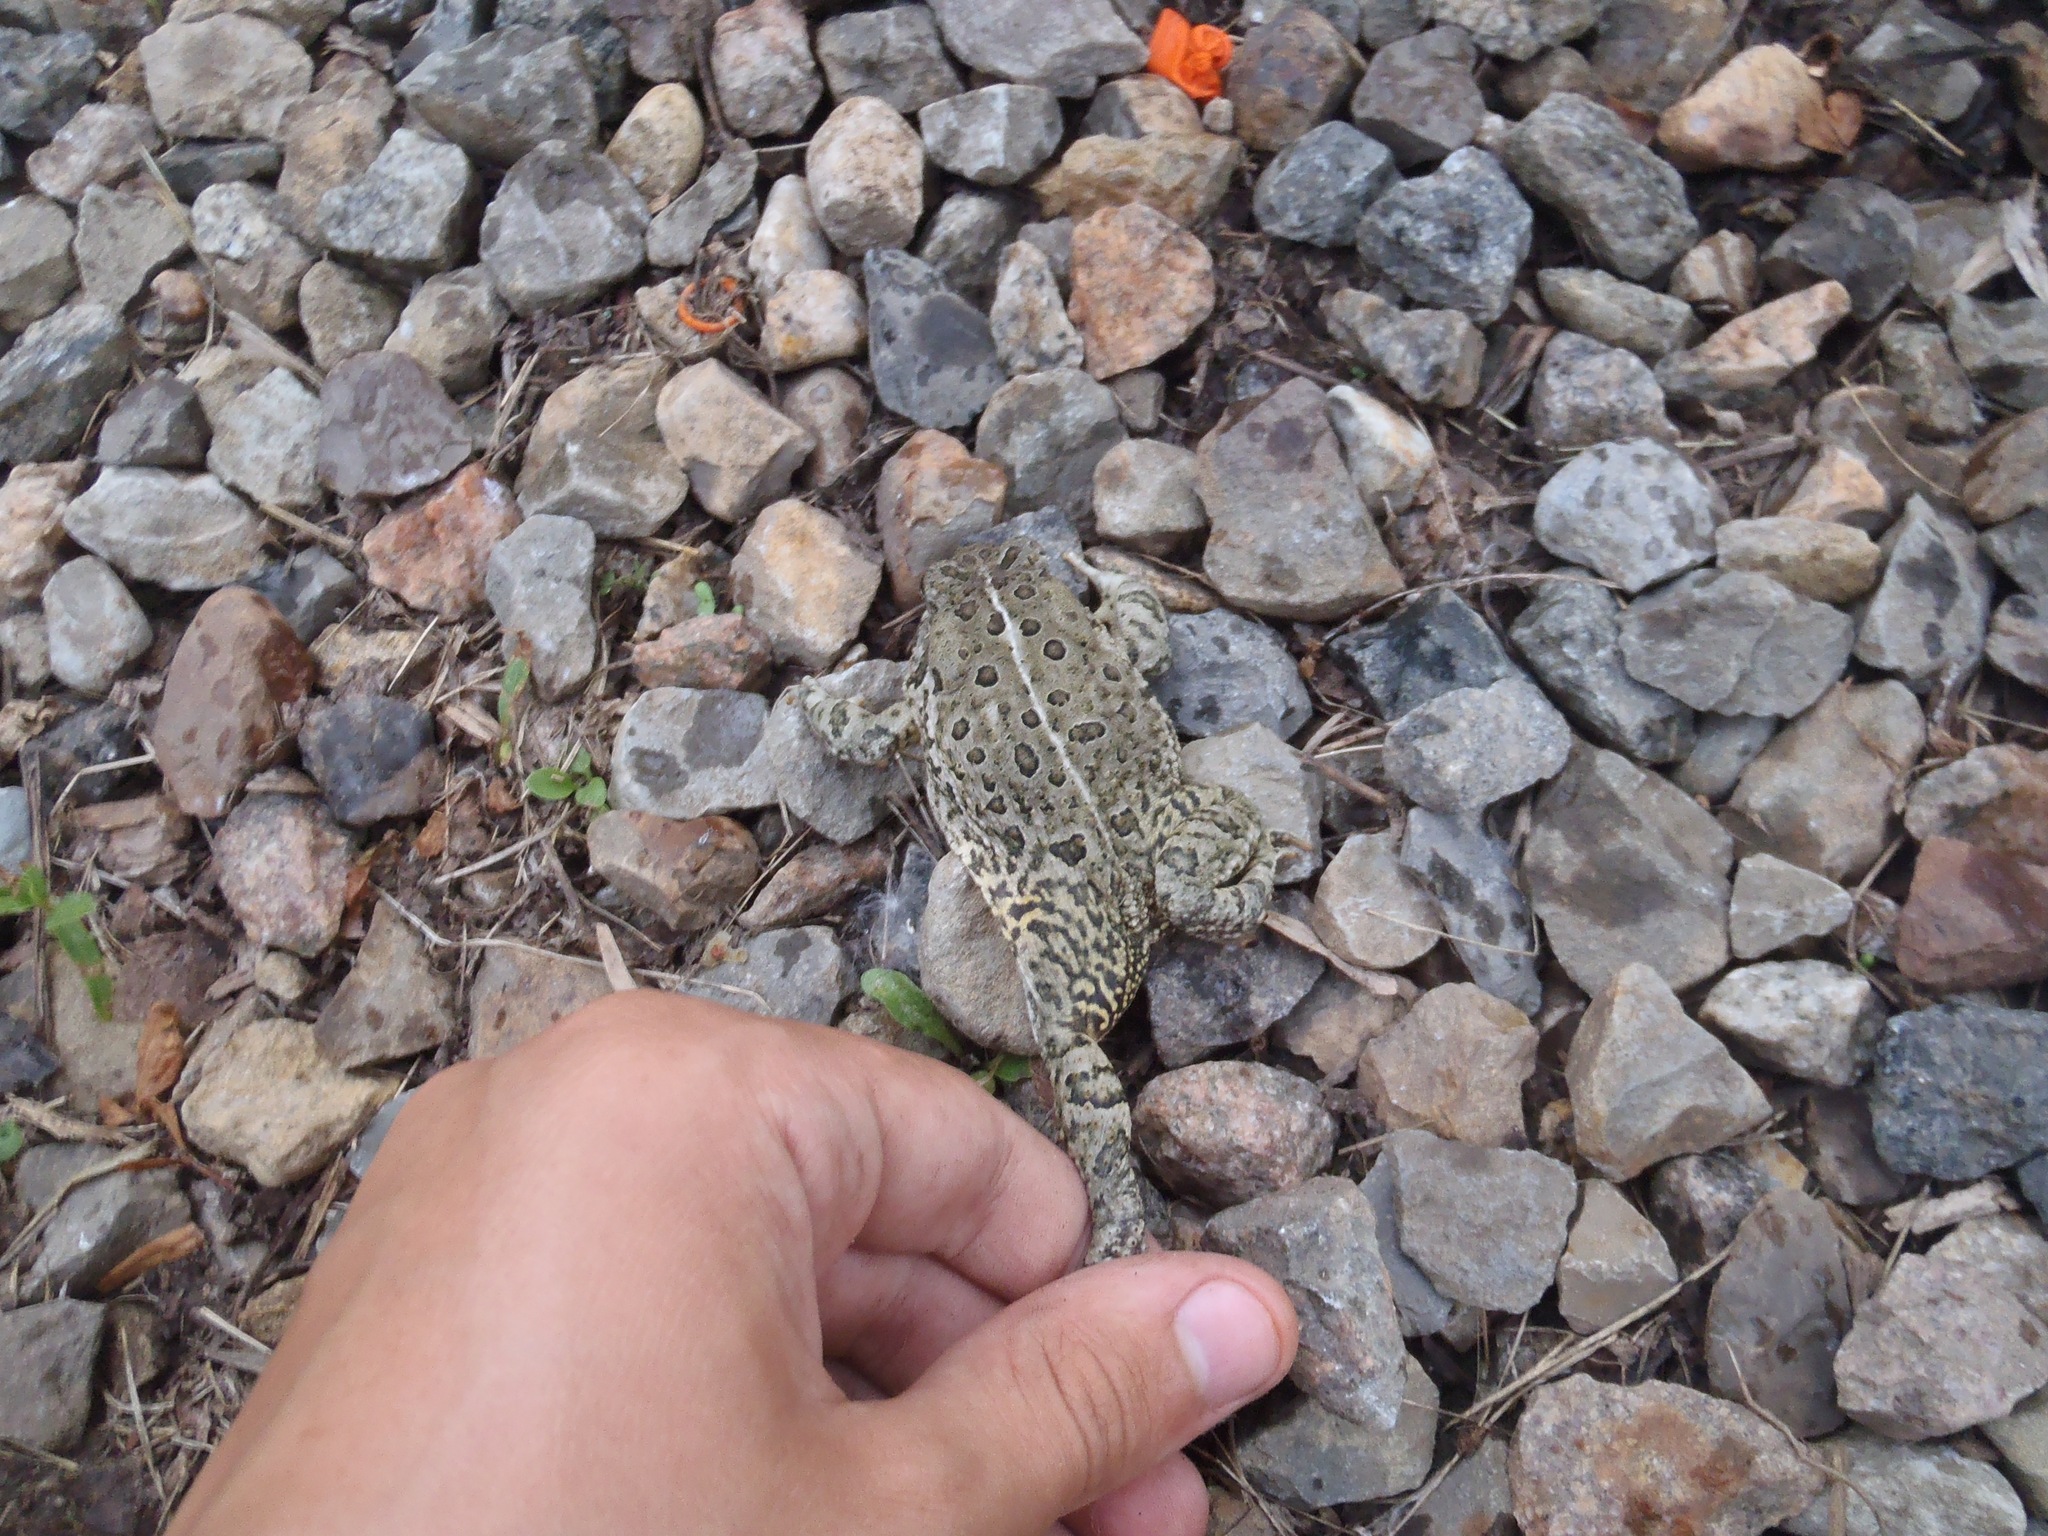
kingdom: Animalia
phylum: Chordata
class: Amphibia
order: Anura
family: Bufonidae
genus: Anaxyrus
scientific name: Anaxyrus woodhousii
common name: Woodhouse's toad
